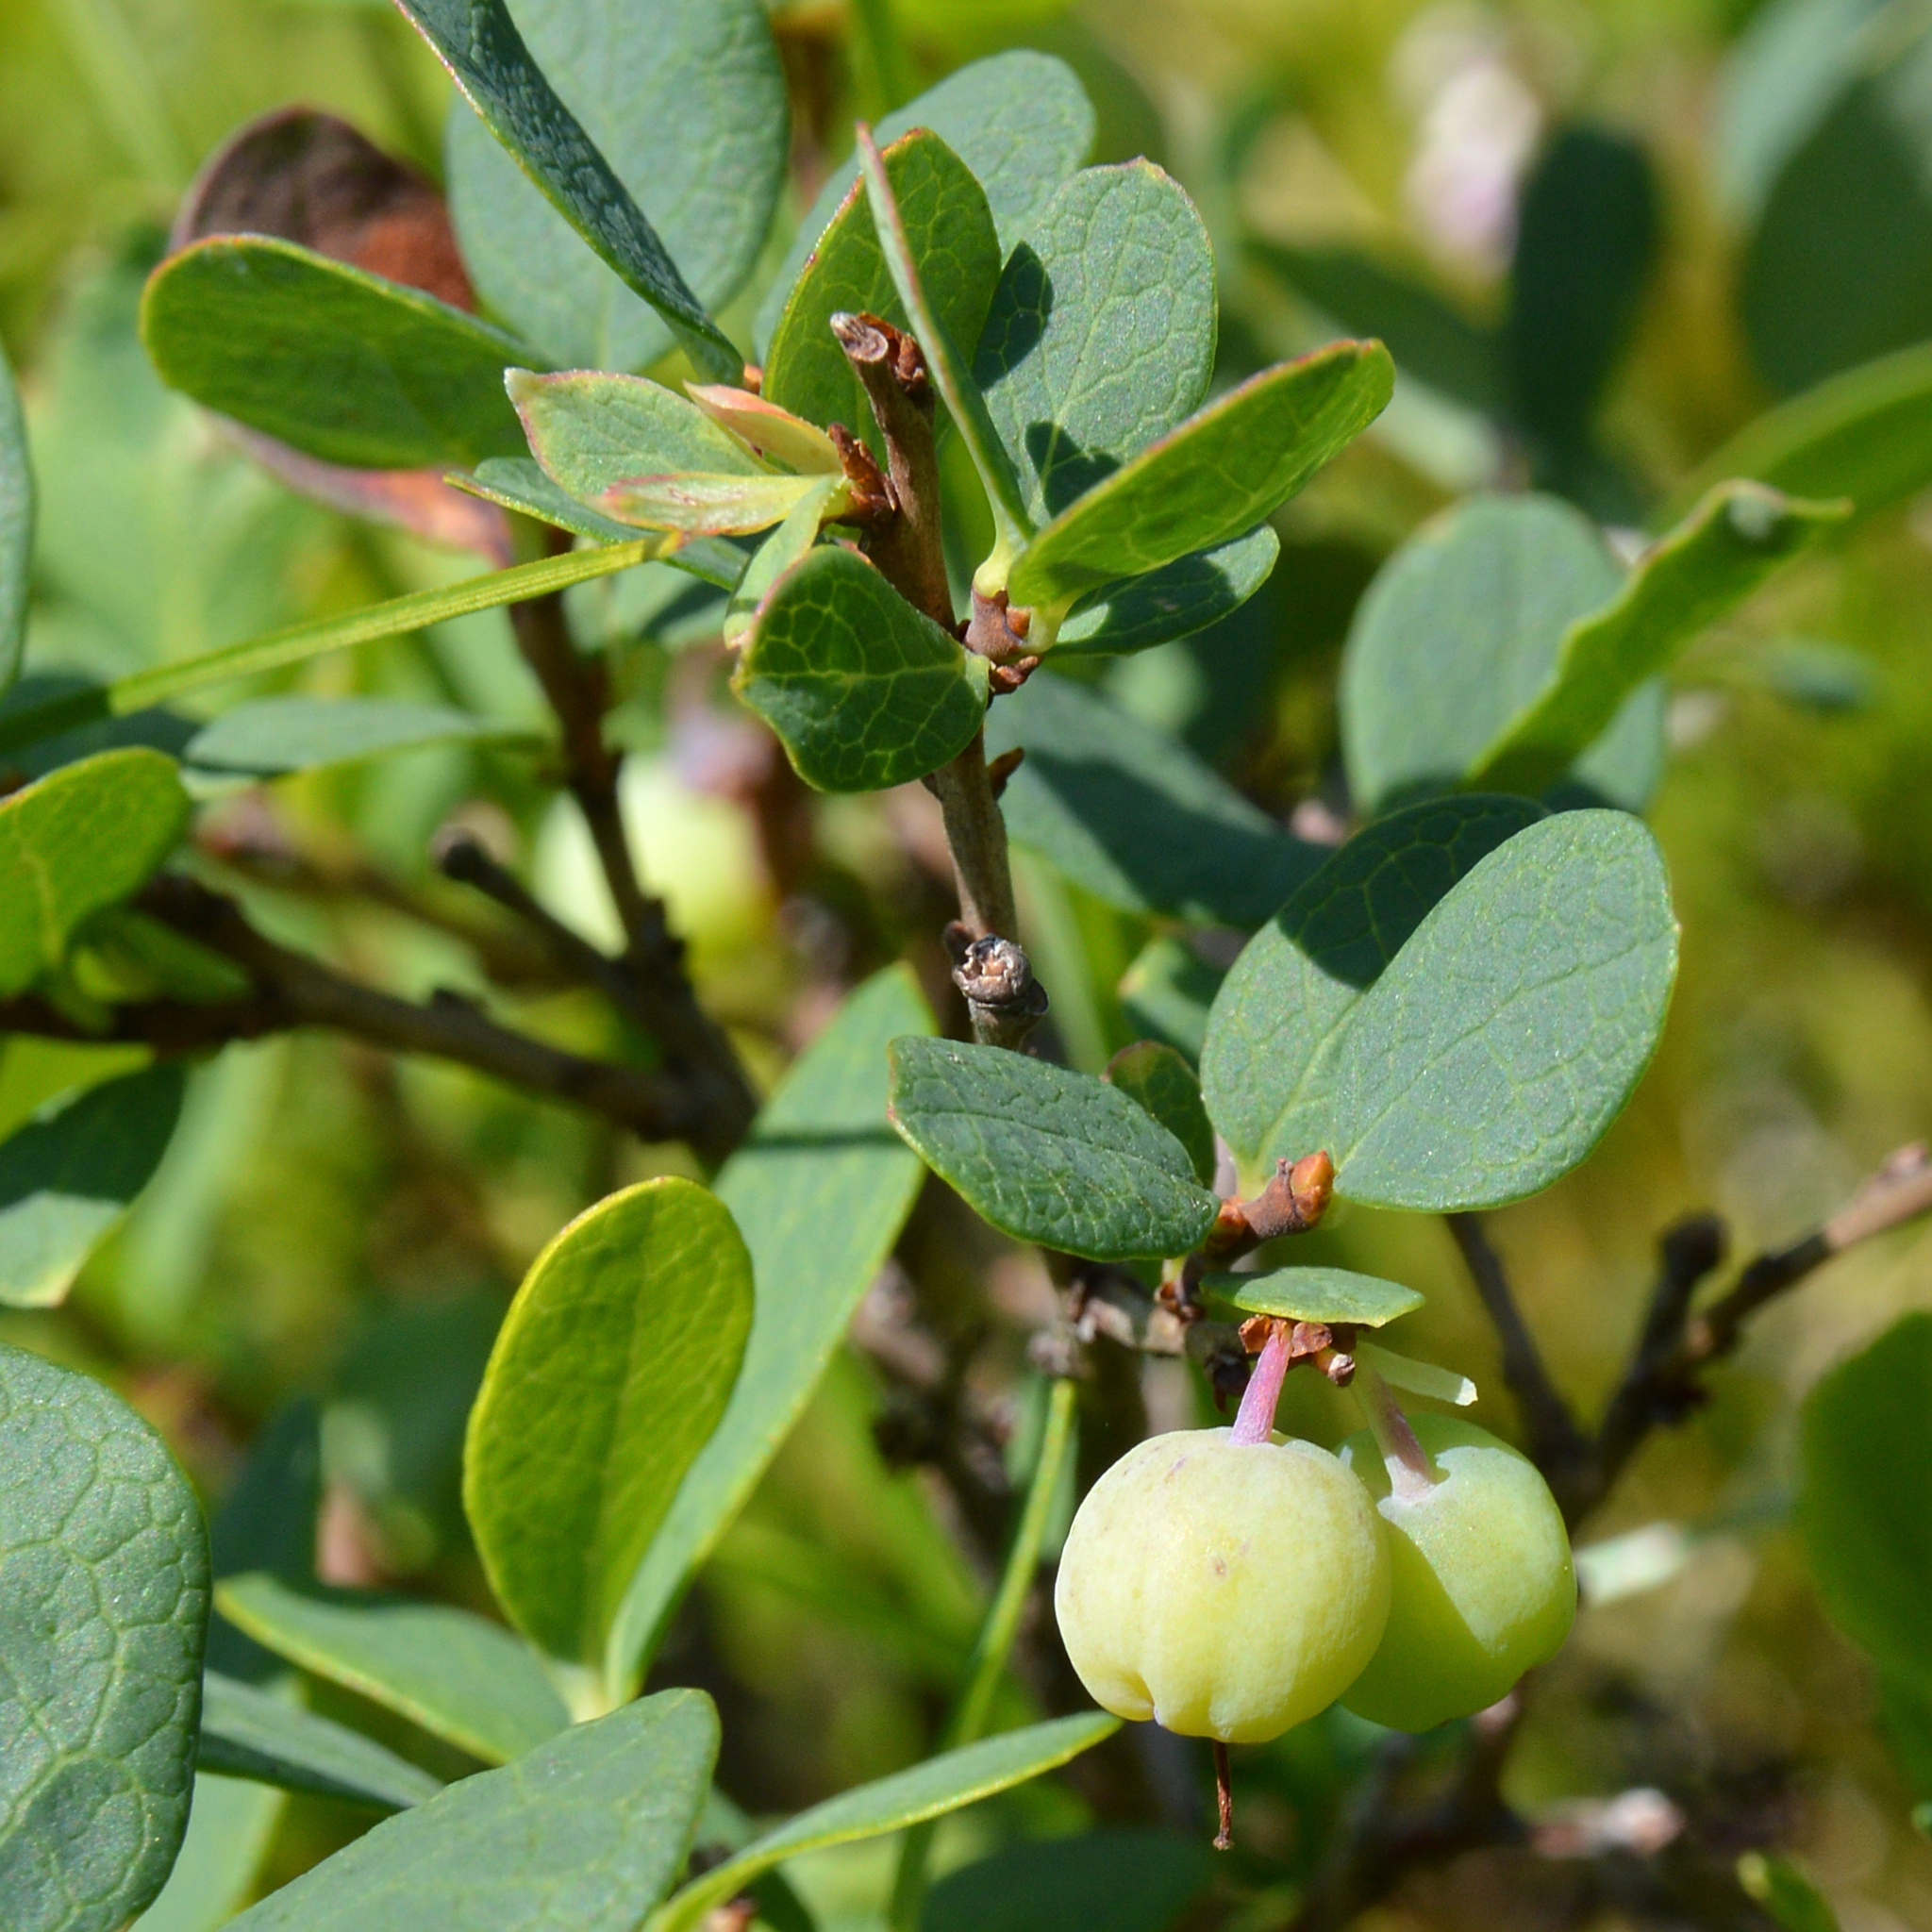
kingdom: Plantae
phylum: Tracheophyta
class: Magnoliopsida
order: Ericales
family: Ericaceae
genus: Vaccinium
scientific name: Vaccinium uliginosum
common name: Bog bilberry
